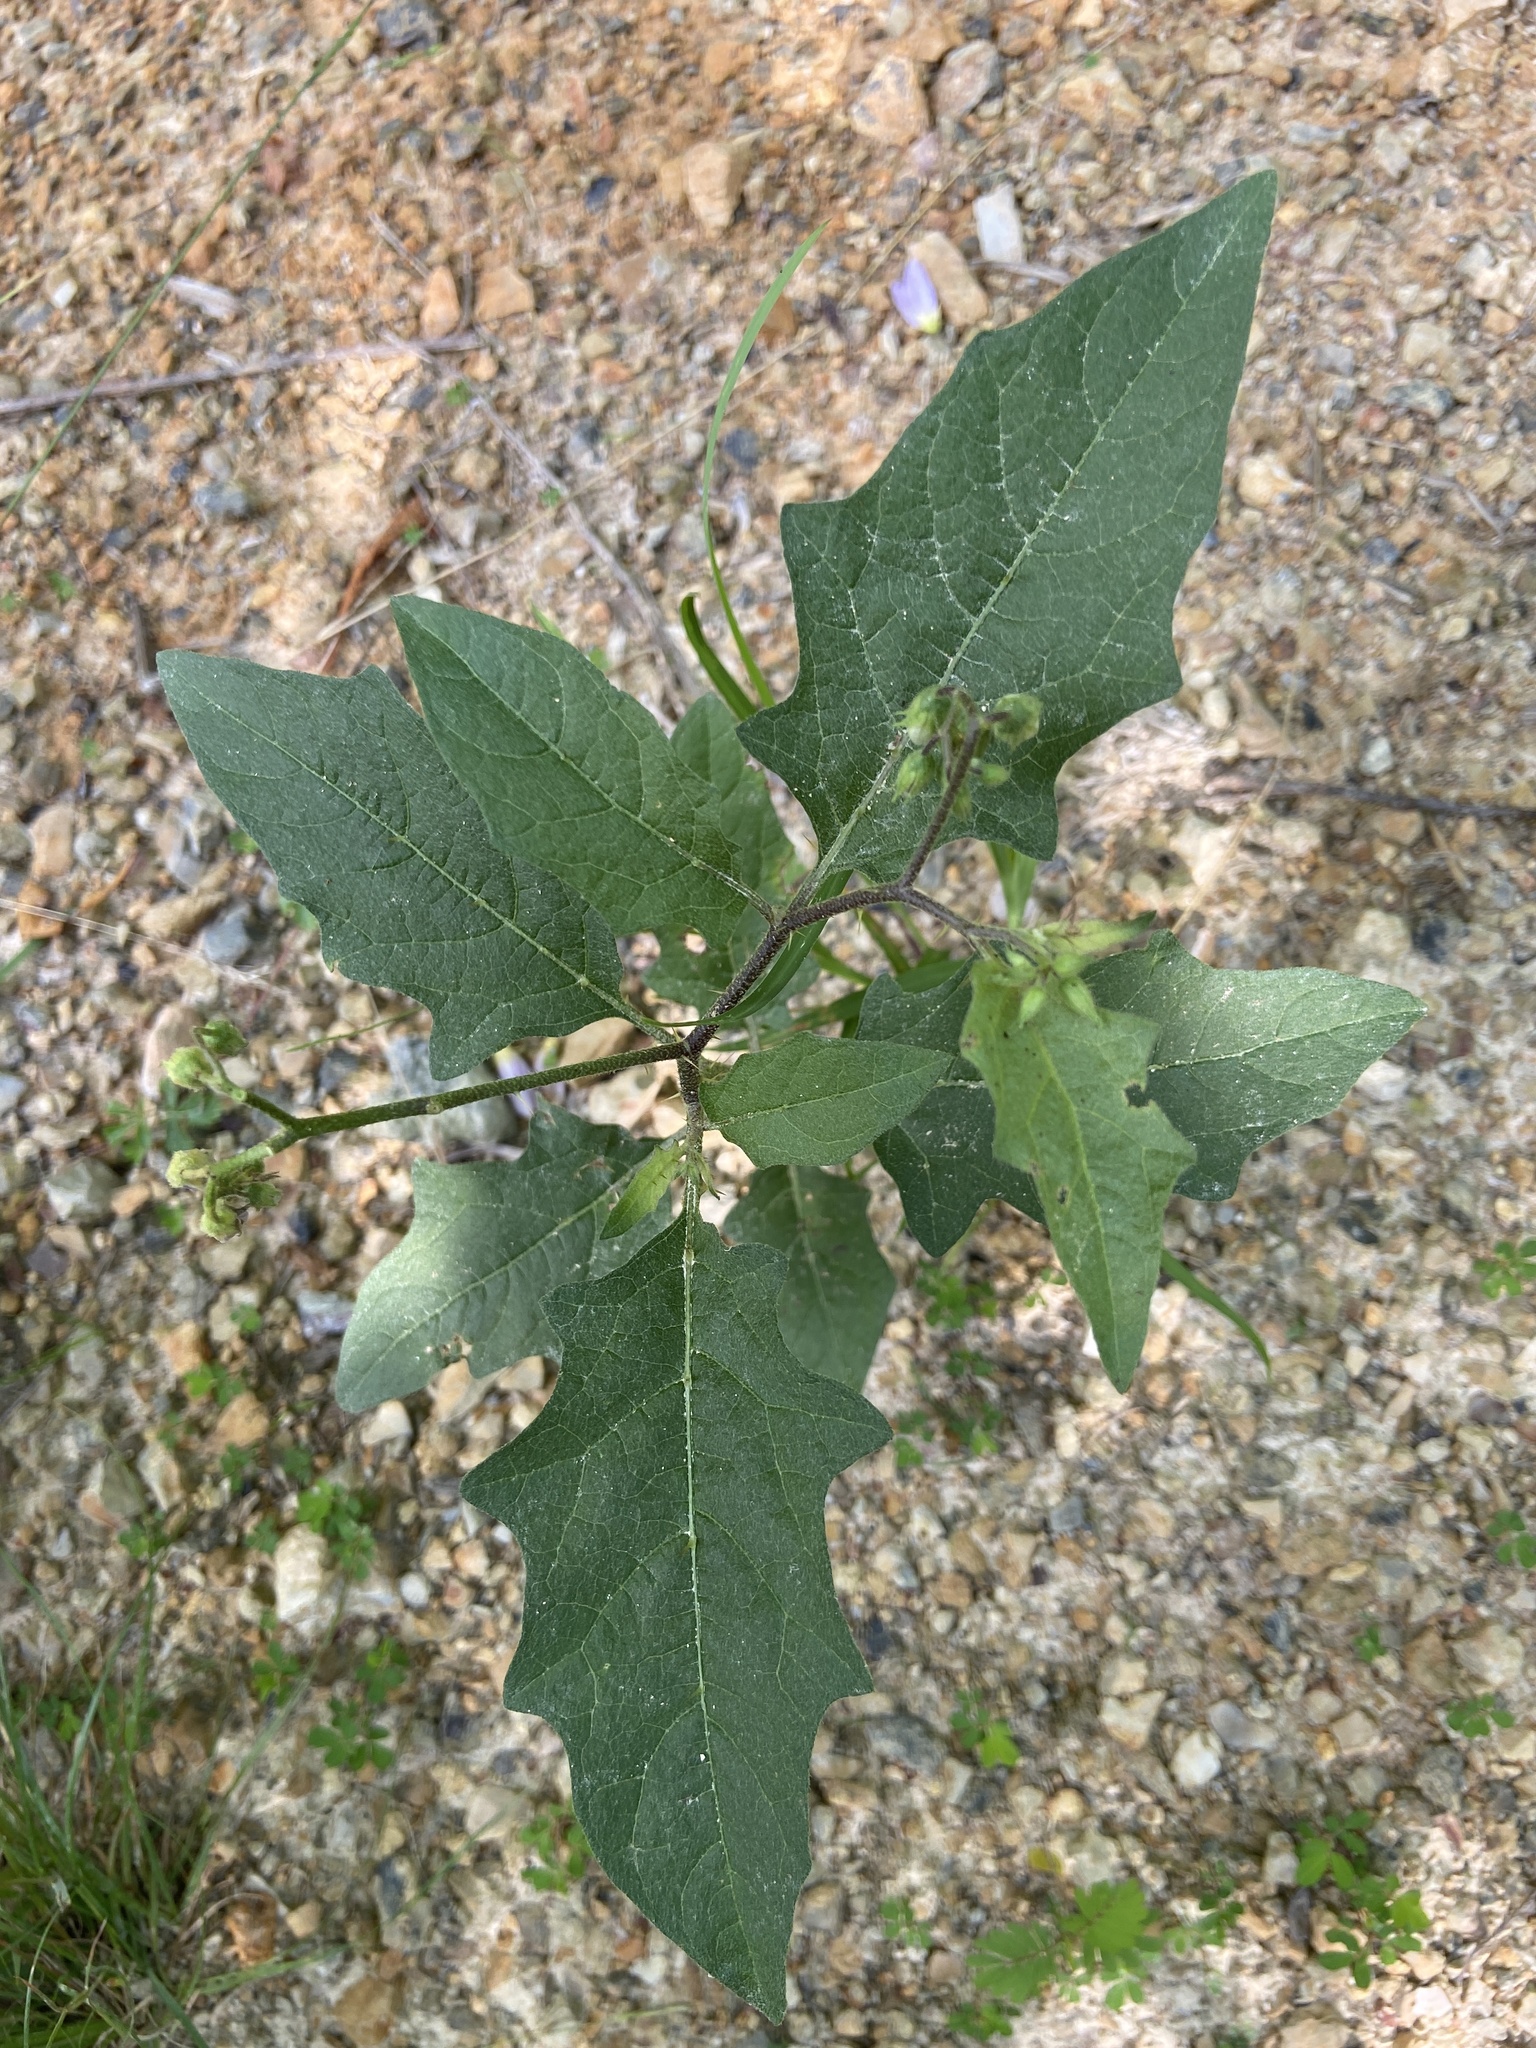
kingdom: Plantae
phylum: Tracheophyta
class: Magnoliopsida
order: Solanales
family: Solanaceae
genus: Solanum
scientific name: Solanum carolinense
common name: Horse-nettle
